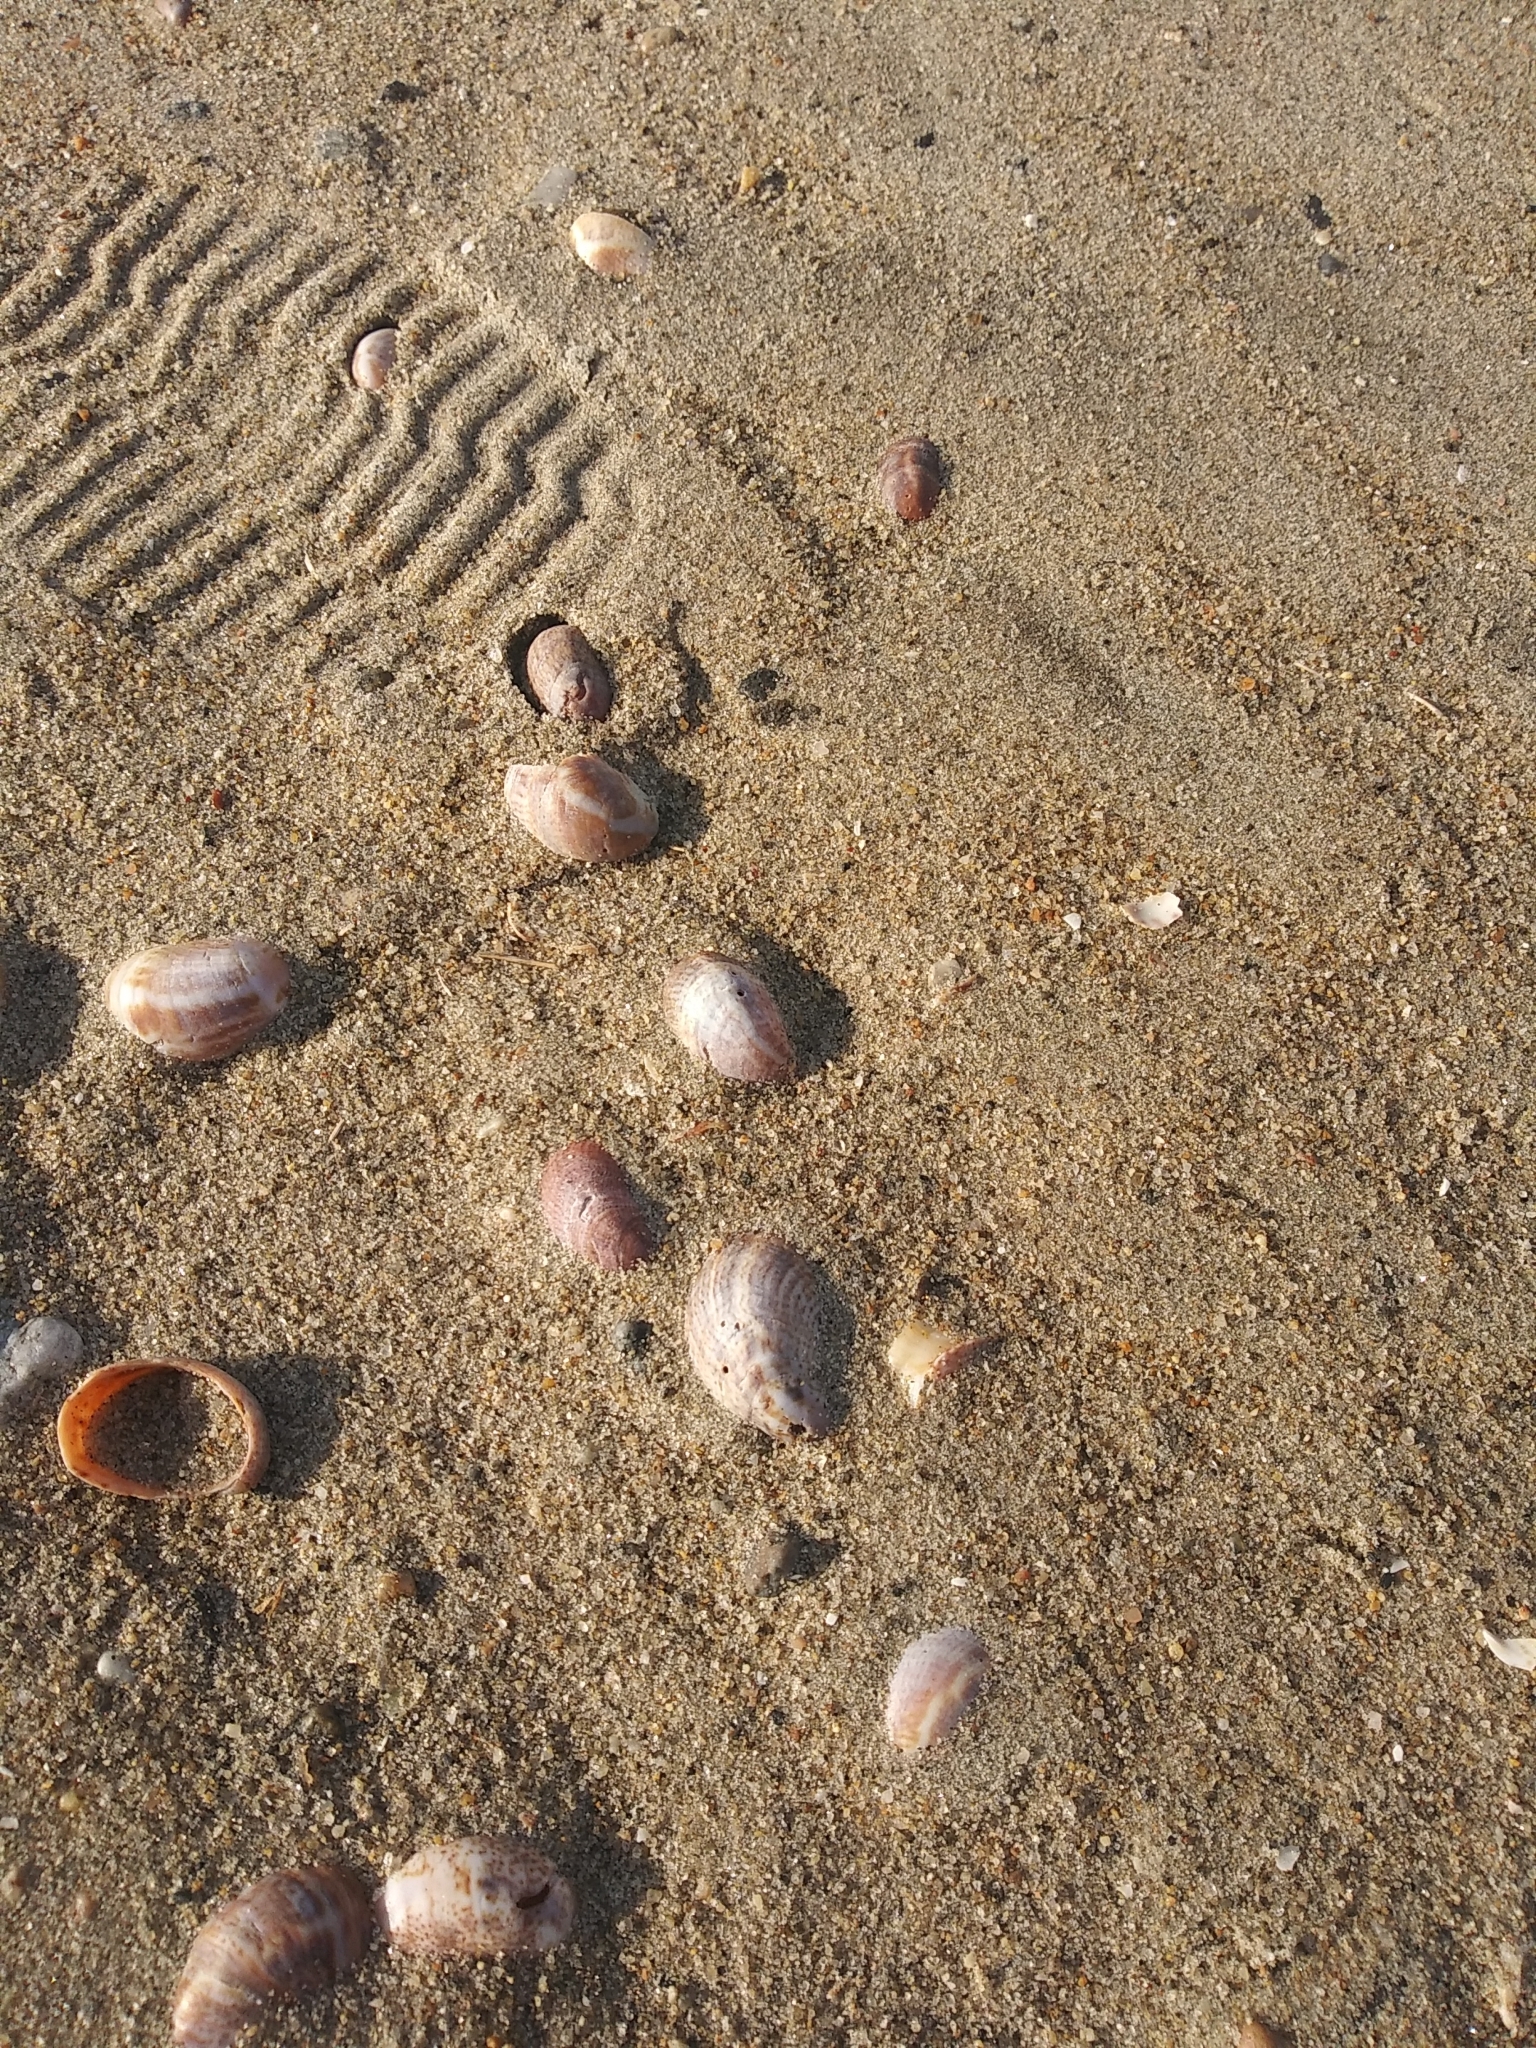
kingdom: Animalia
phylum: Mollusca
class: Gastropoda
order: Littorinimorpha
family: Calyptraeidae
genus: Crepidula
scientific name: Crepidula fornicata
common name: Slipper limpet
